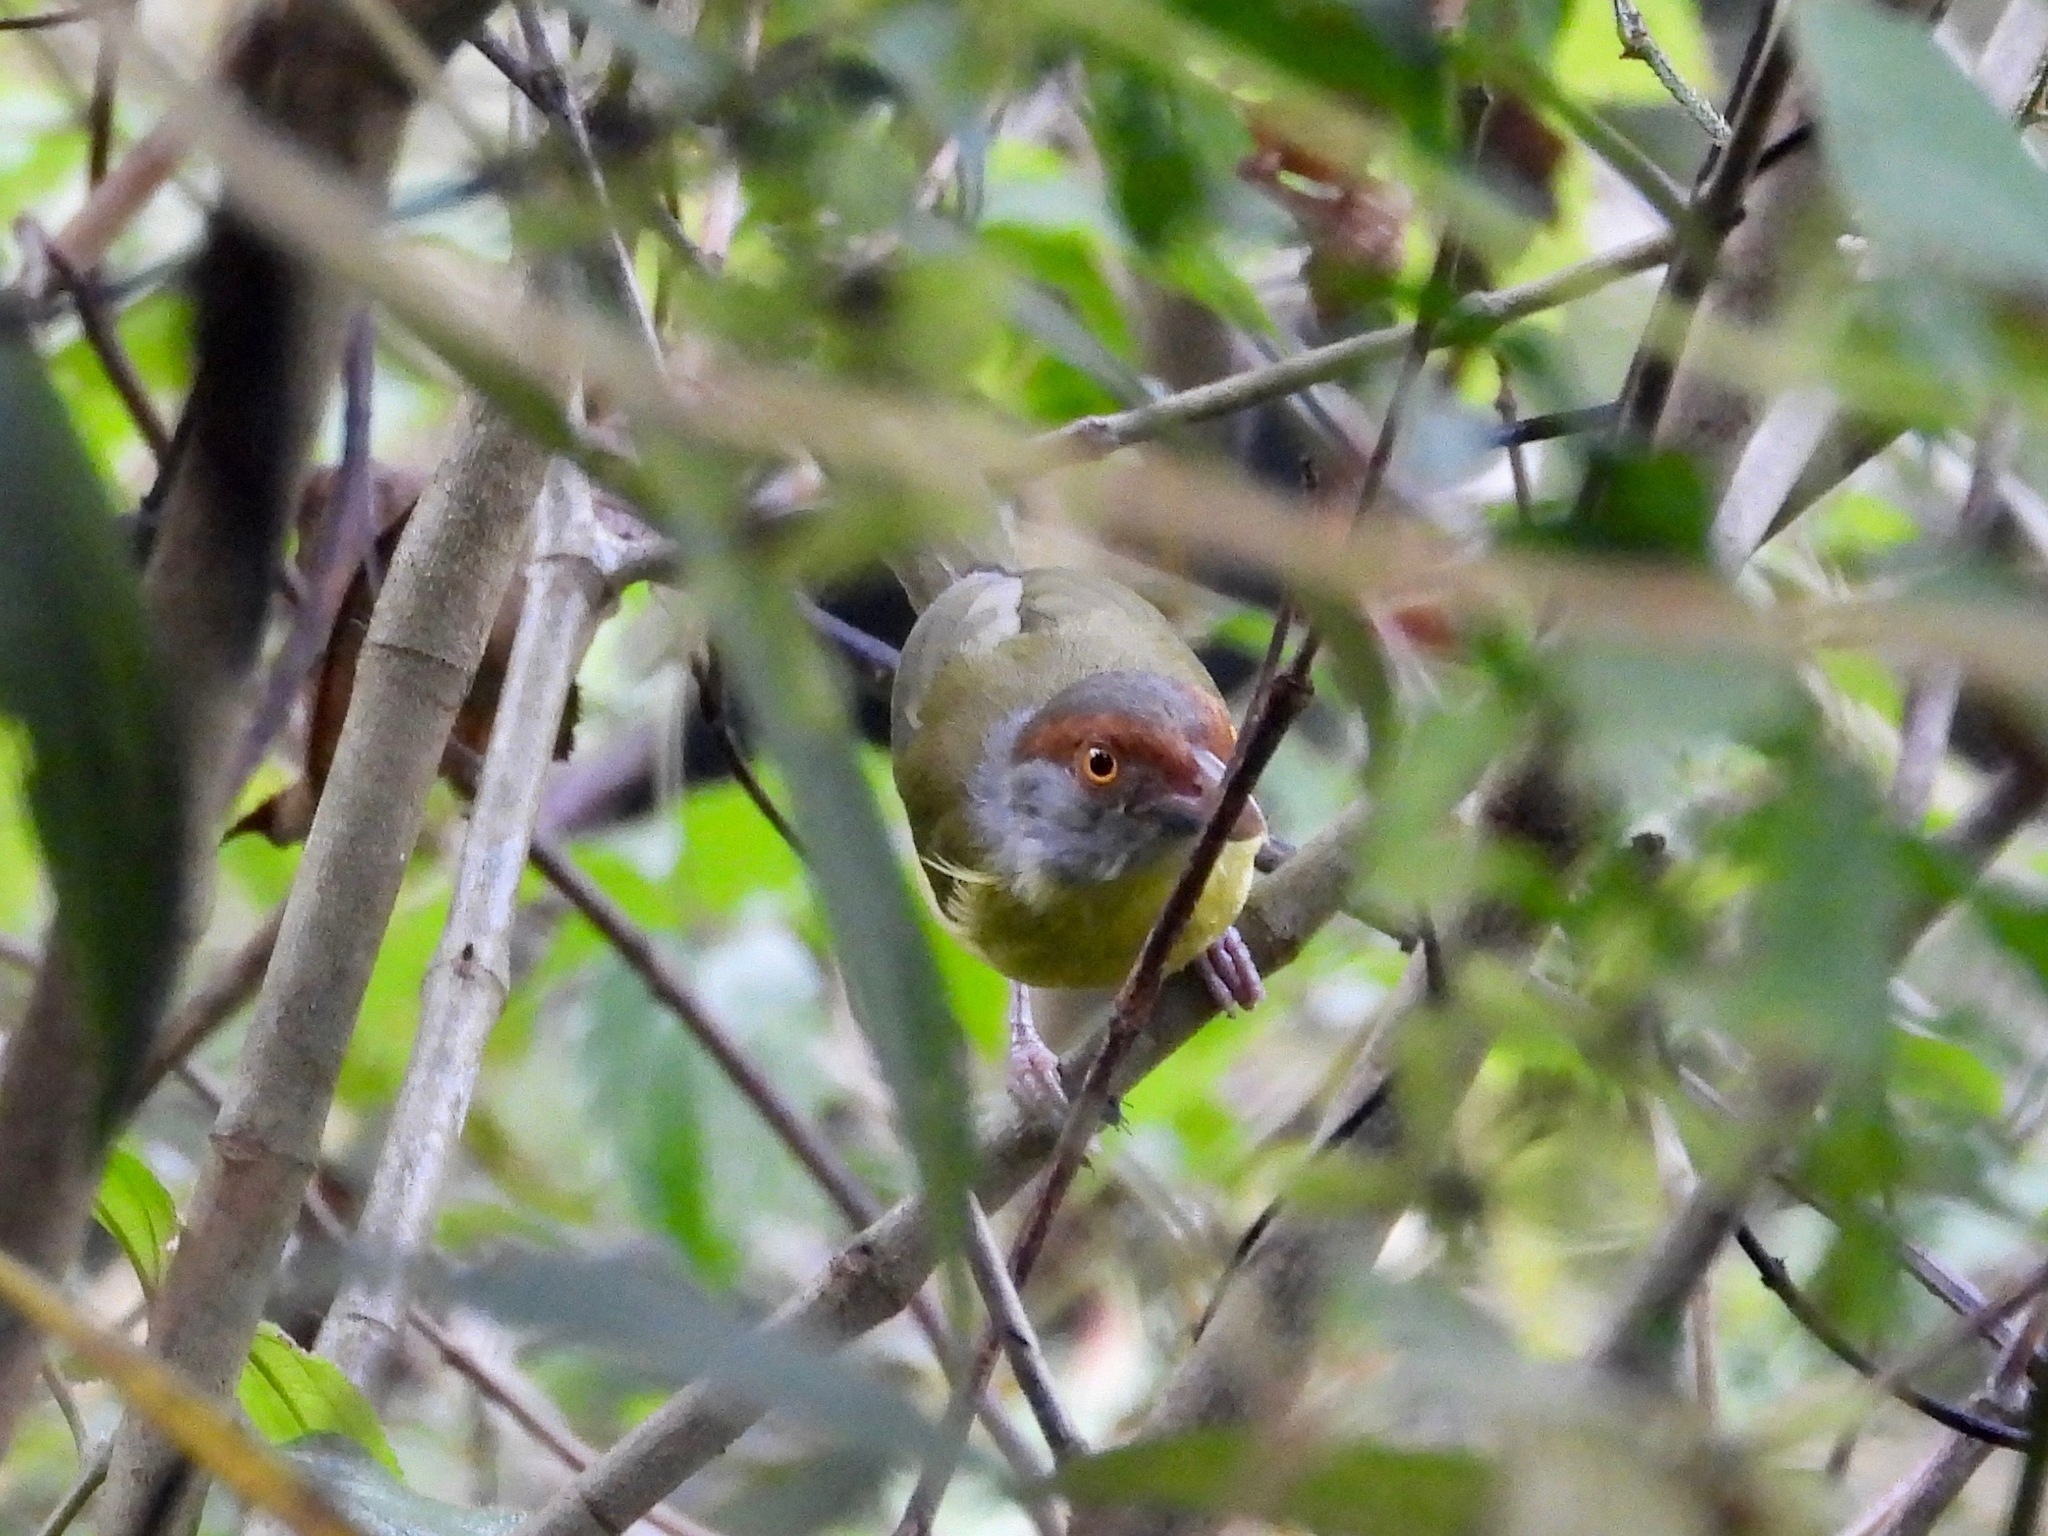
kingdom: Animalia
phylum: Chordata
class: Aves
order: Passeriformes
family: Vireonidae
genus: Cyclarhis
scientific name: Cyclarhis gujanensis
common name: Rufous-browed peppershrike
